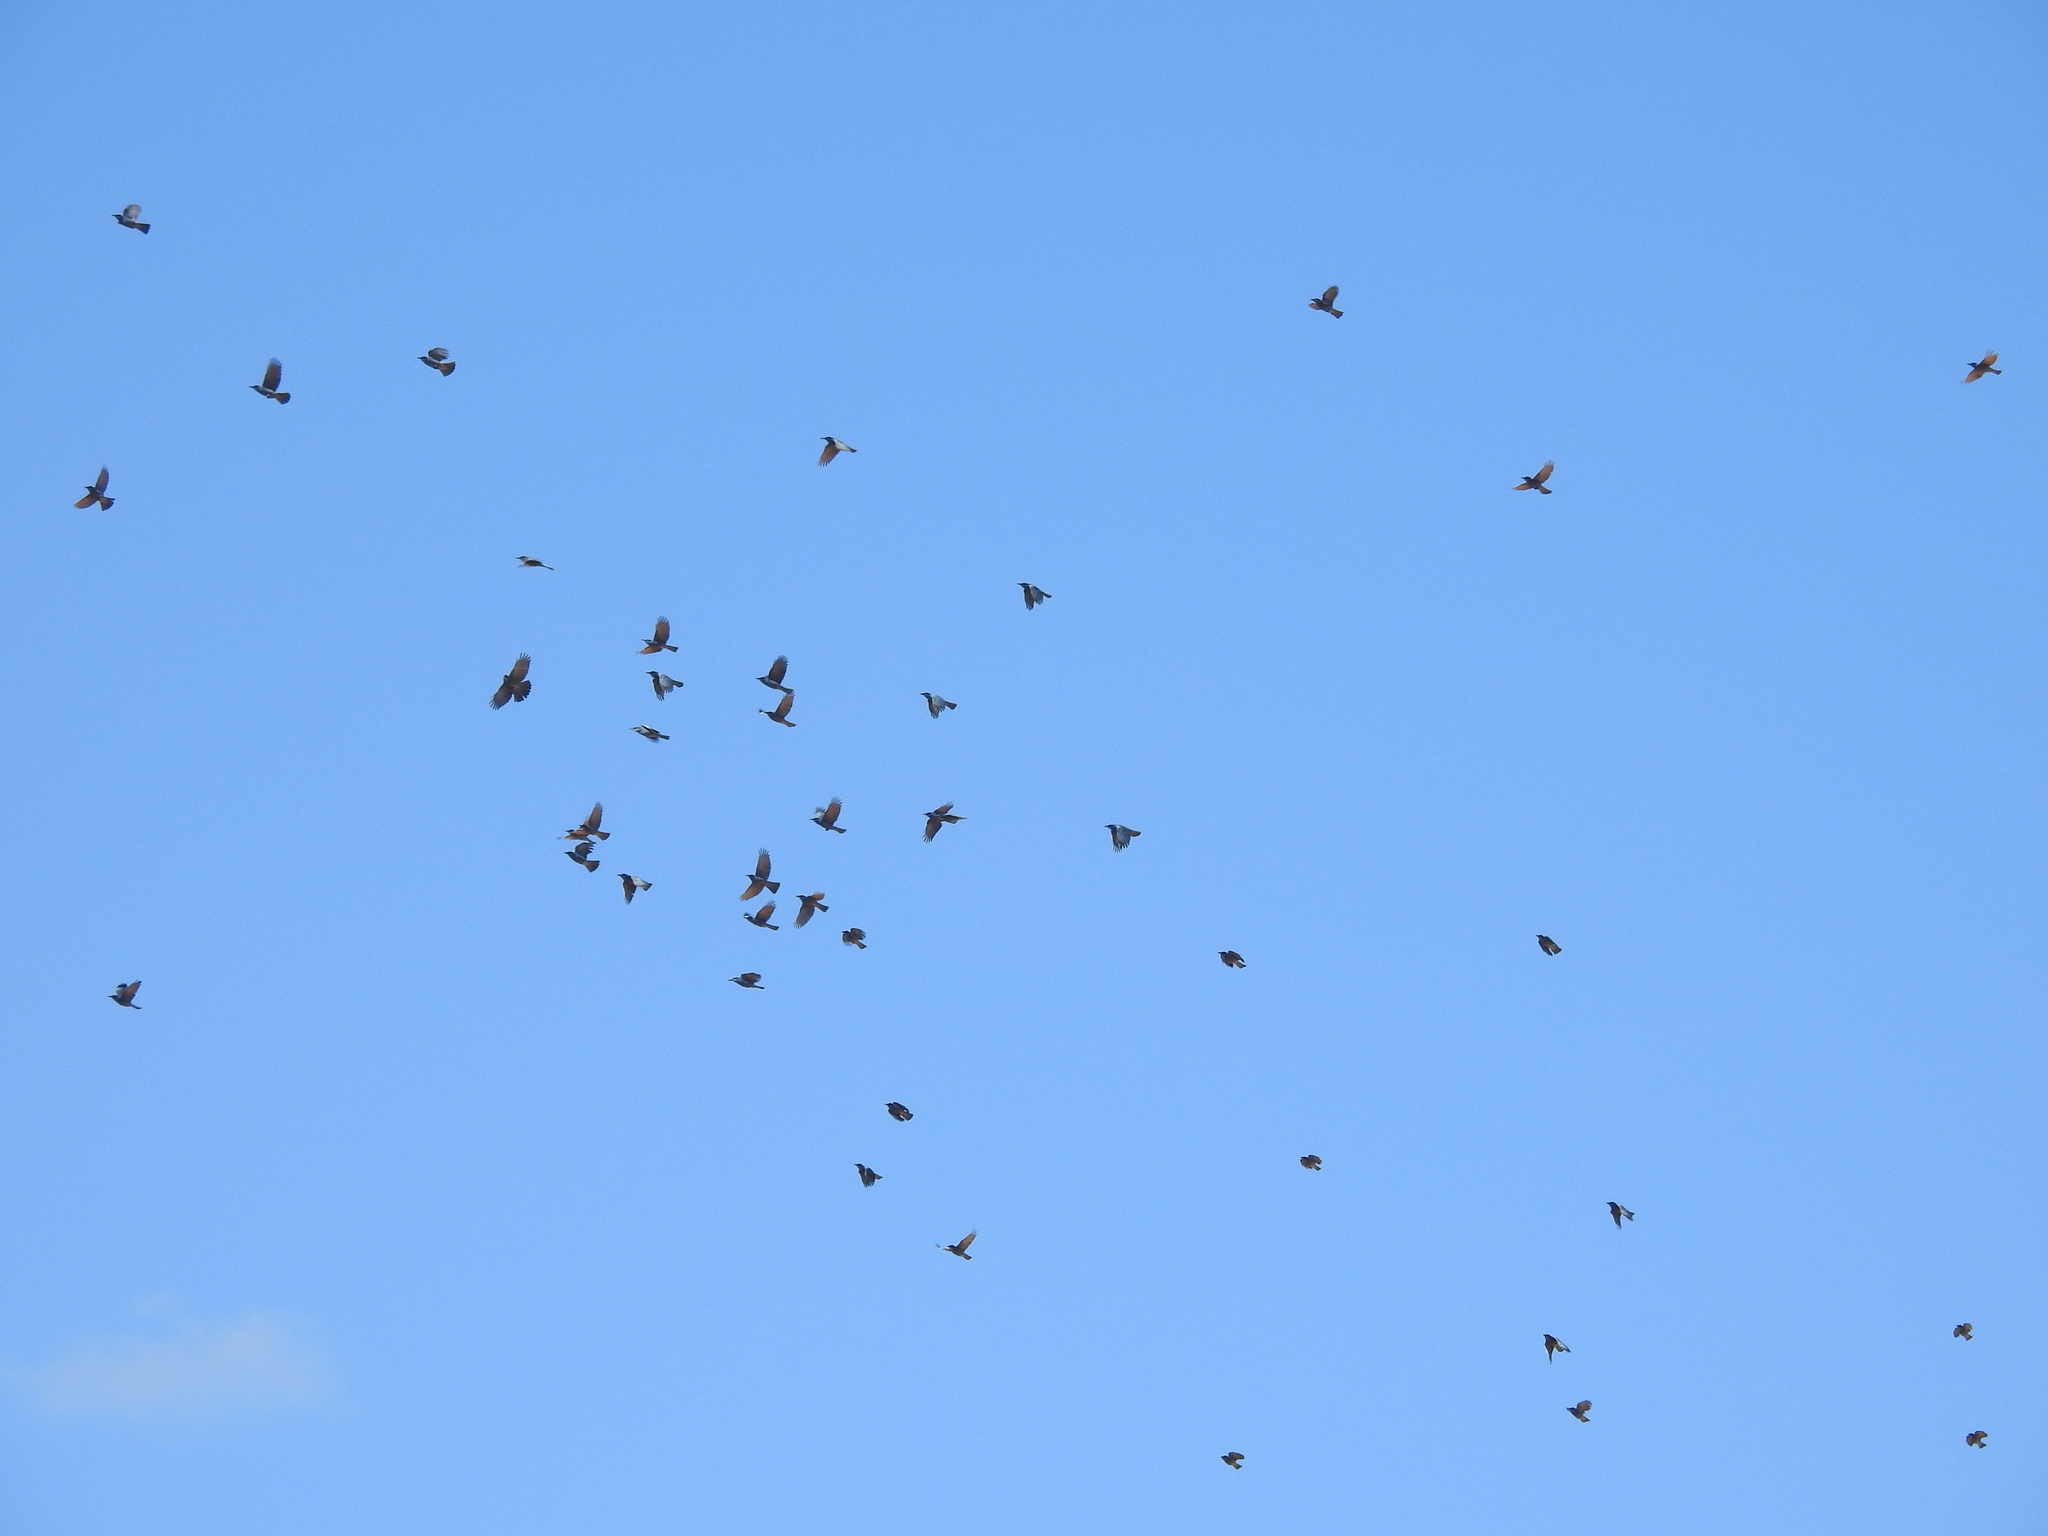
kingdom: Animalia
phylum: Chordata
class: Aves
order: Passeriformes
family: Corvidae
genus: Gymnorhinus
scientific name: Gymnorhinus cyanocephalus
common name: Pinyon jay
